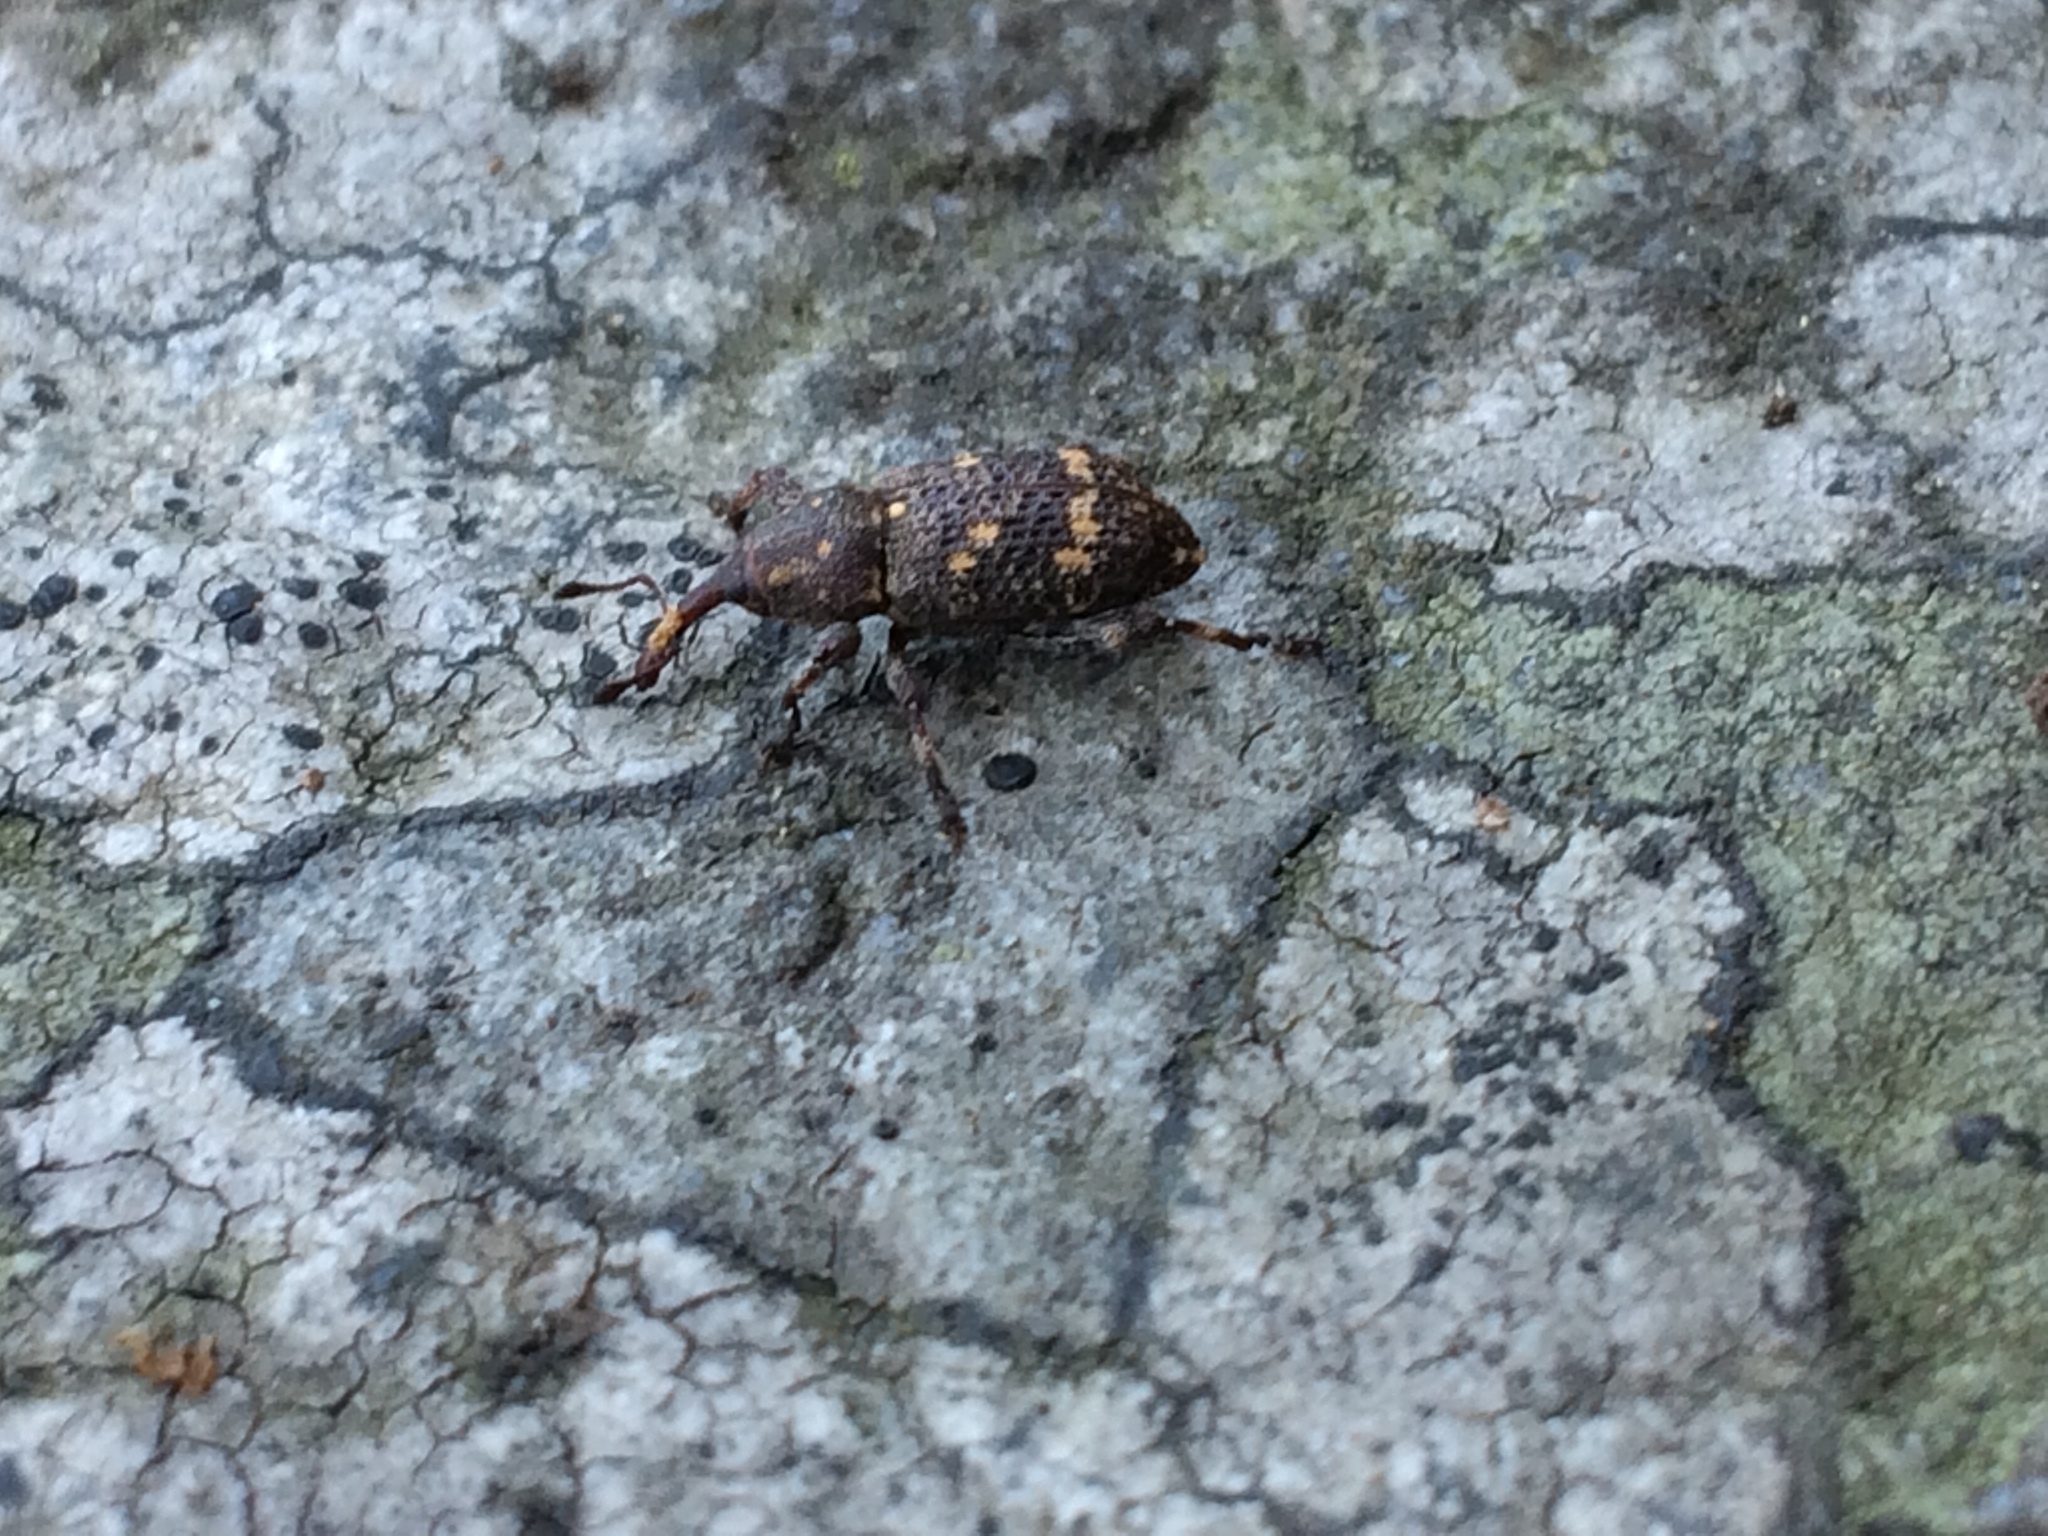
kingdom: Animalia
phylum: Arthropoda
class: Insecta
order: Coleoptera
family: Curculionidae
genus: Hylobius
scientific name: Hylobius abietis
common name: Large pine weevil
